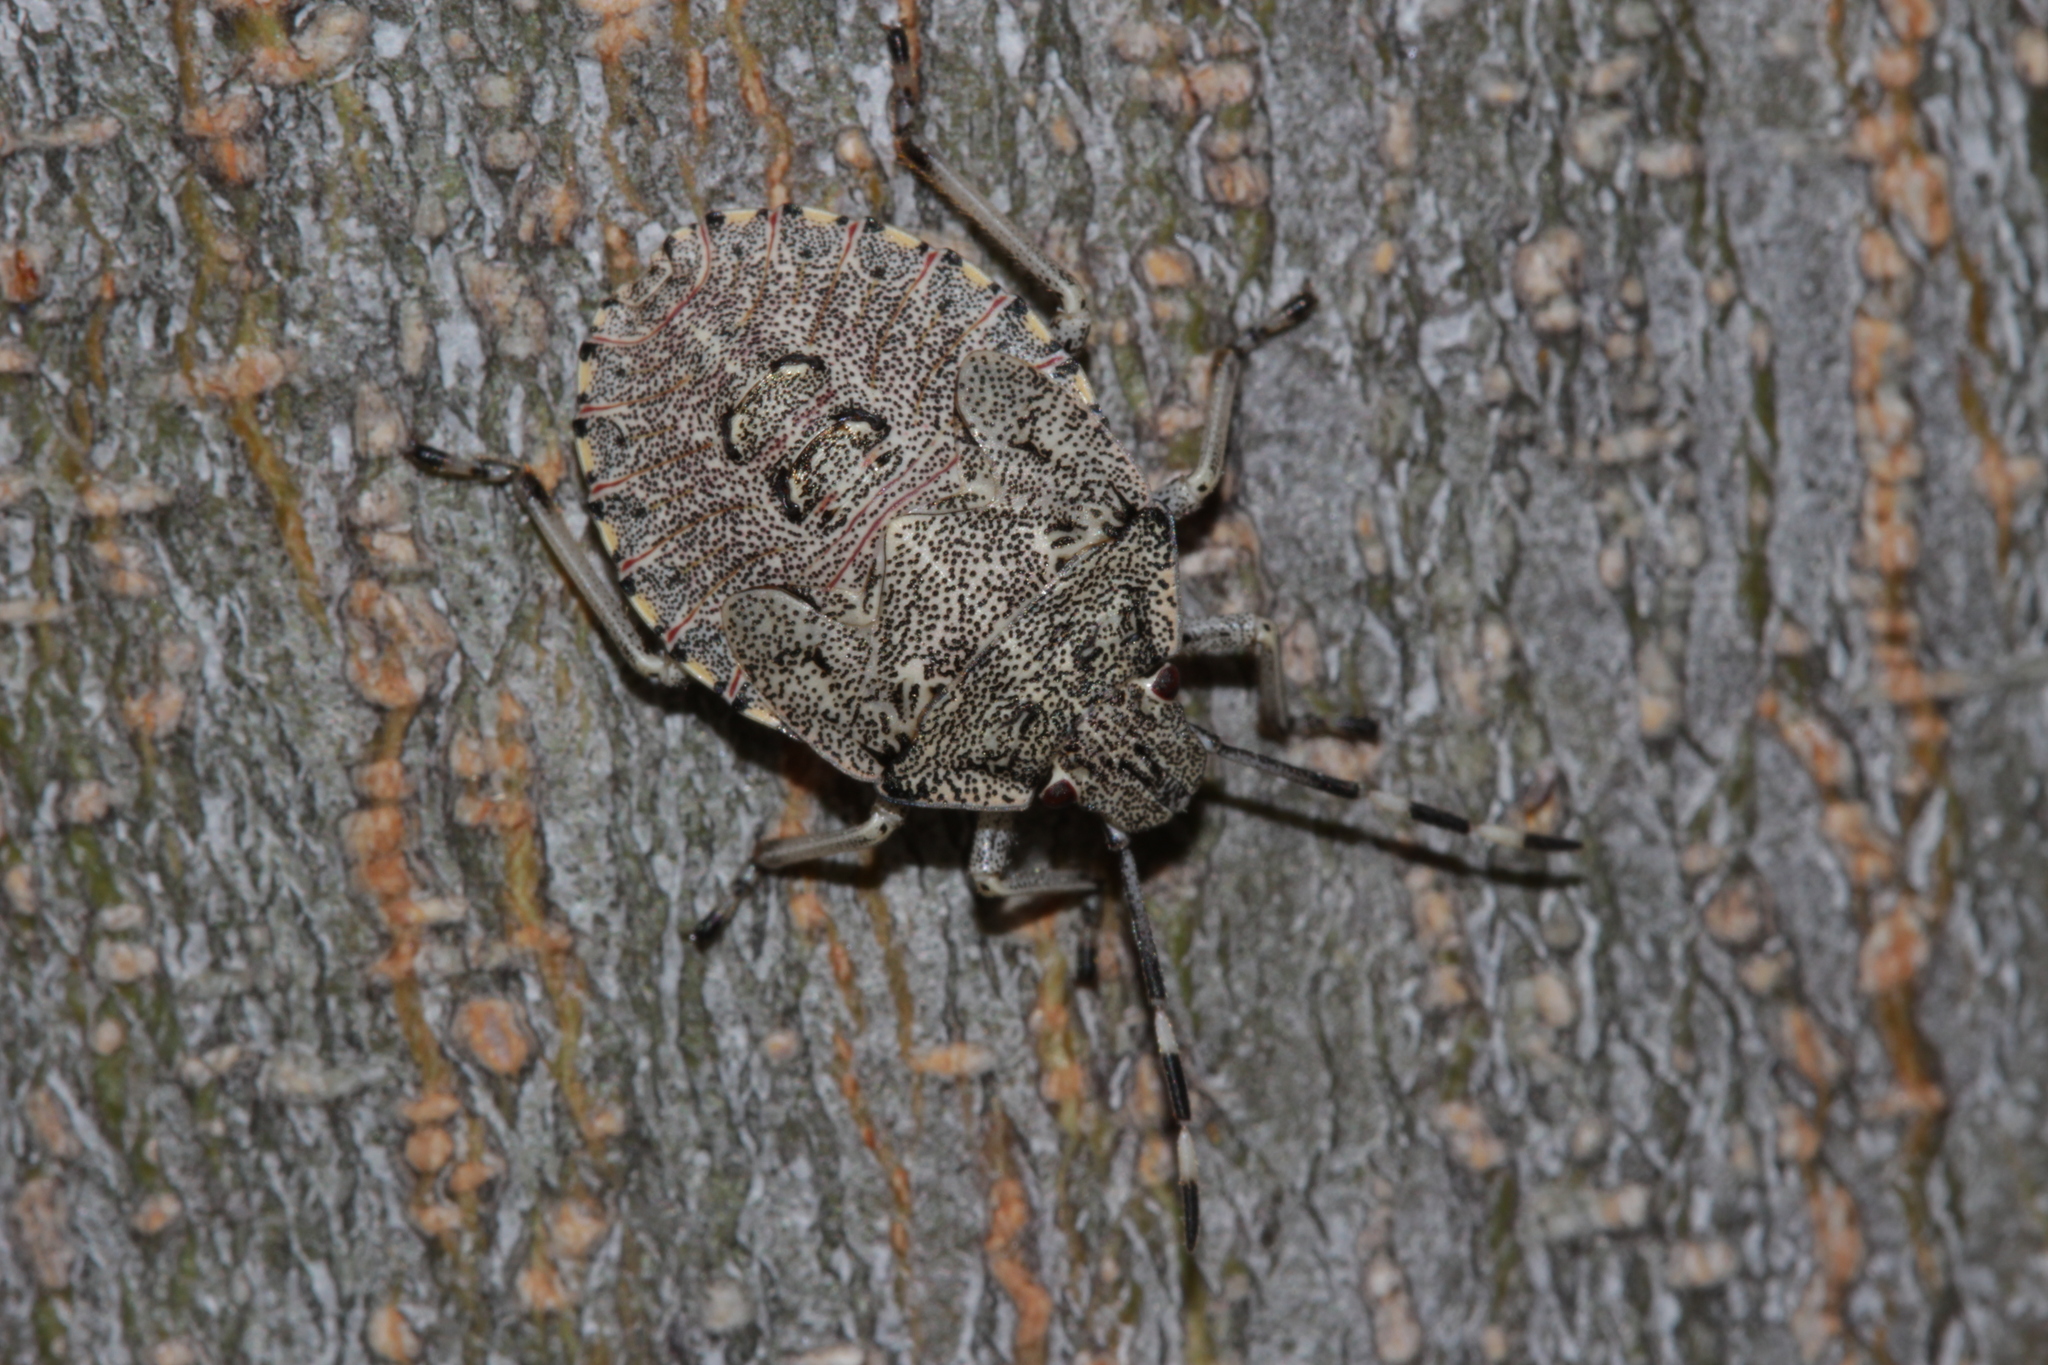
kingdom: Animalia
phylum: Arthropoda
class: Insecta
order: Hemiptera
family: Pentatomidae
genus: Rhaphigaster
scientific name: Rhaphigaster nebulosa
